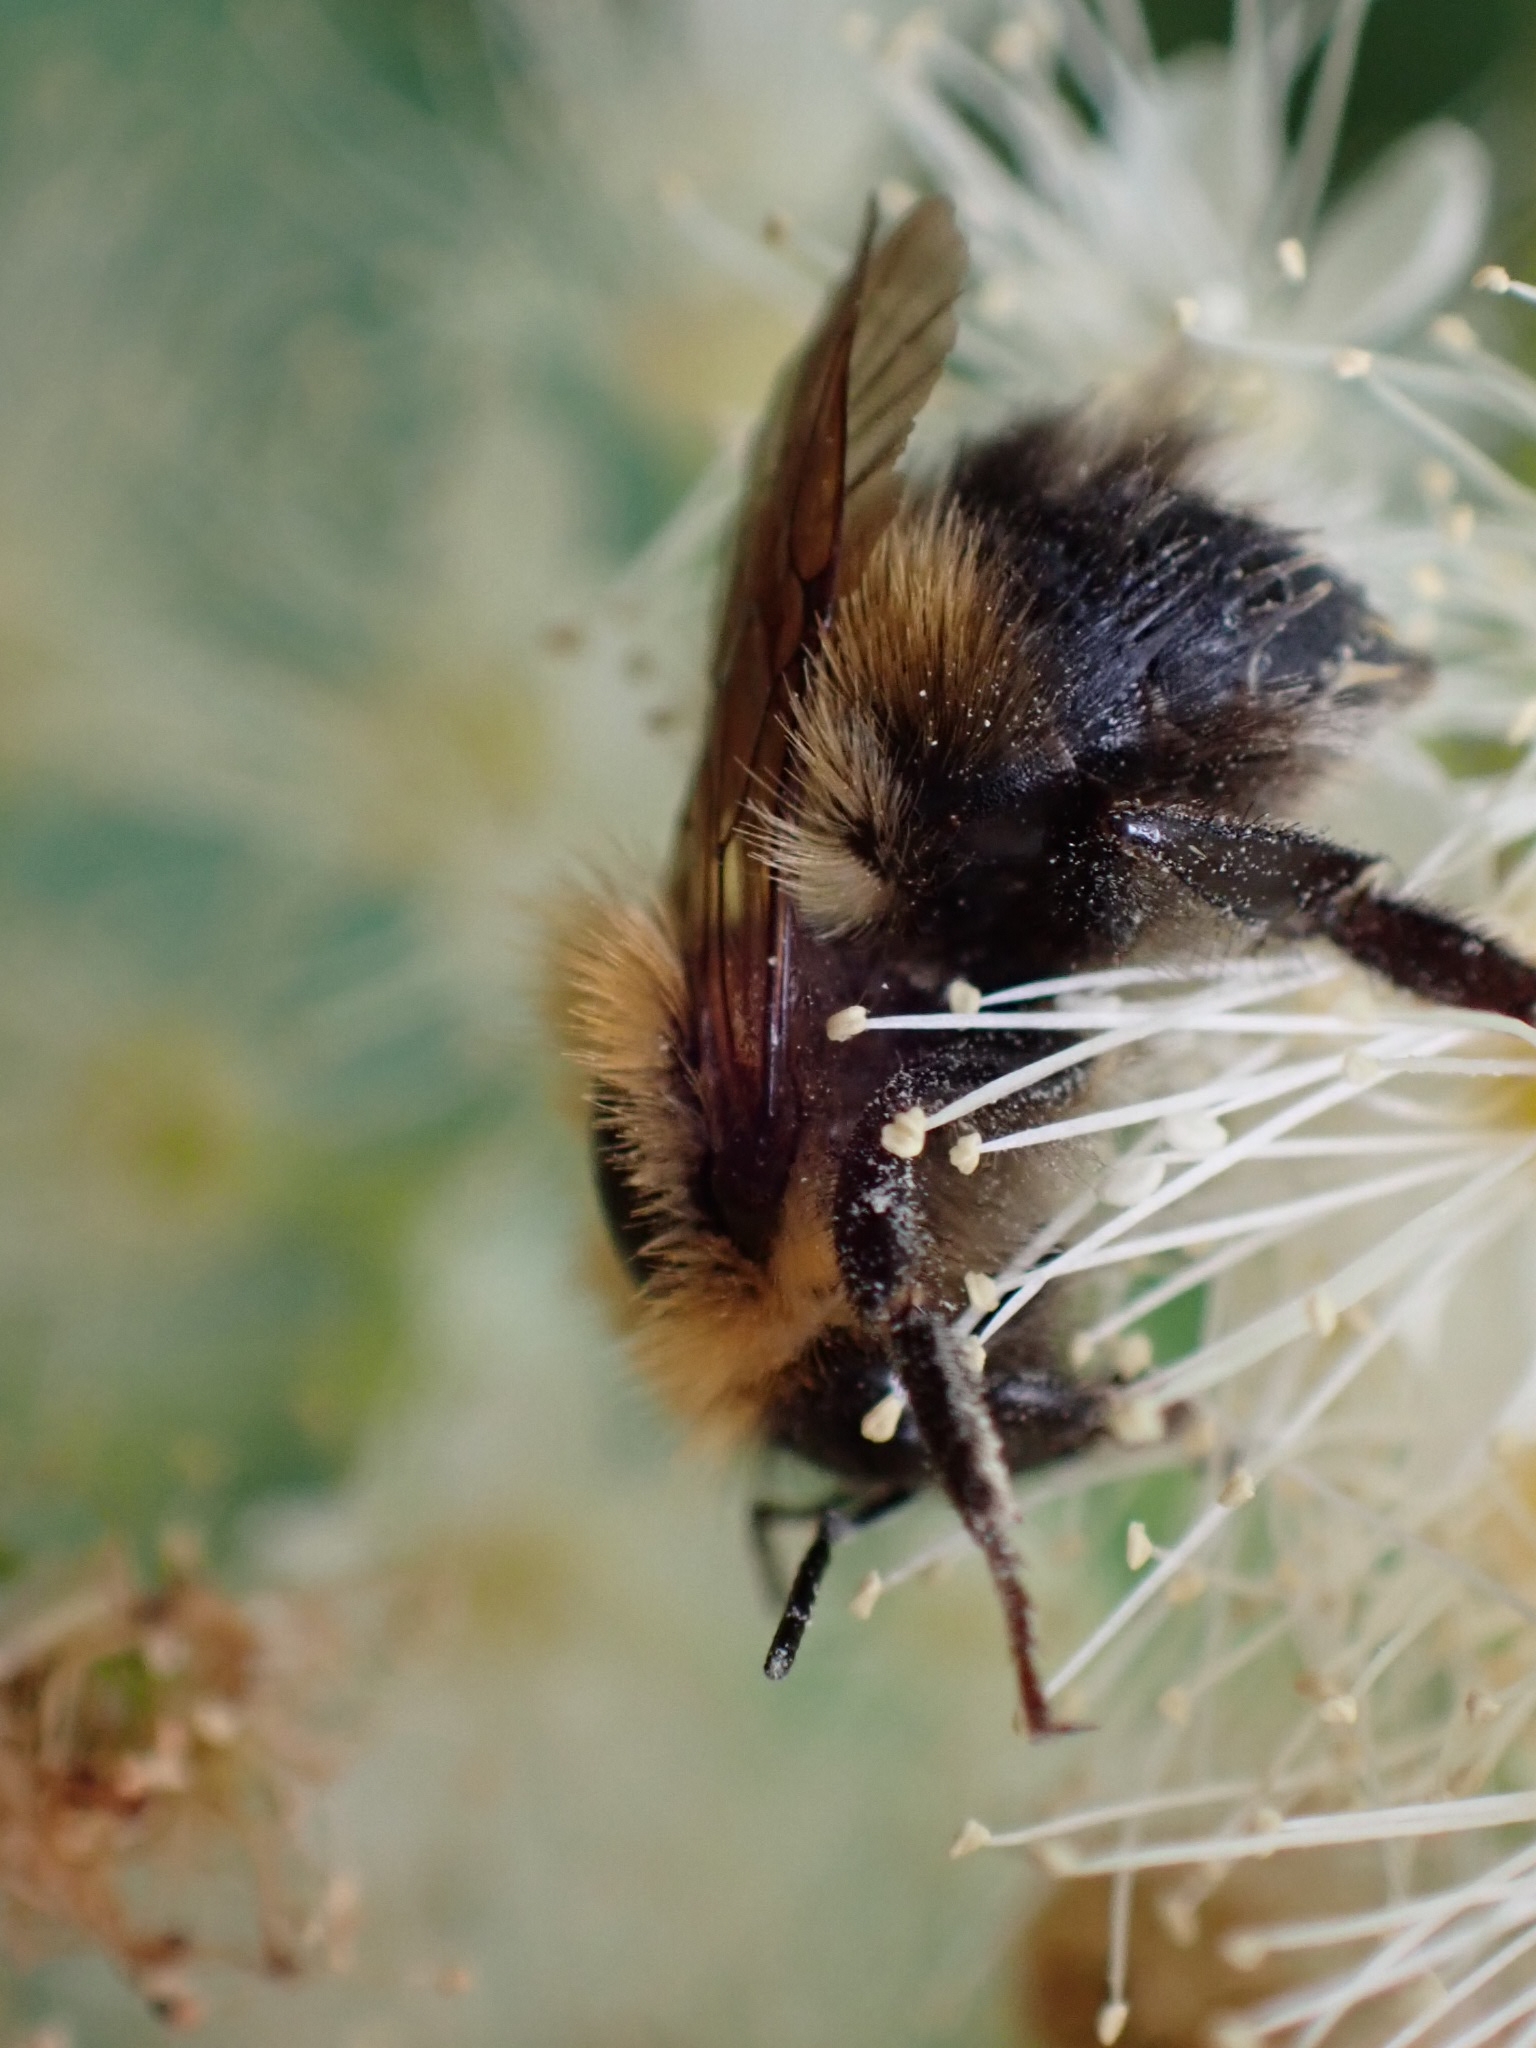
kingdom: Animalia
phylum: Arthropoda
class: Insecta
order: Hymenoptera
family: Apidae
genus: Bombus
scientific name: Bombus hypnorum
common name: New garden bumblebee
